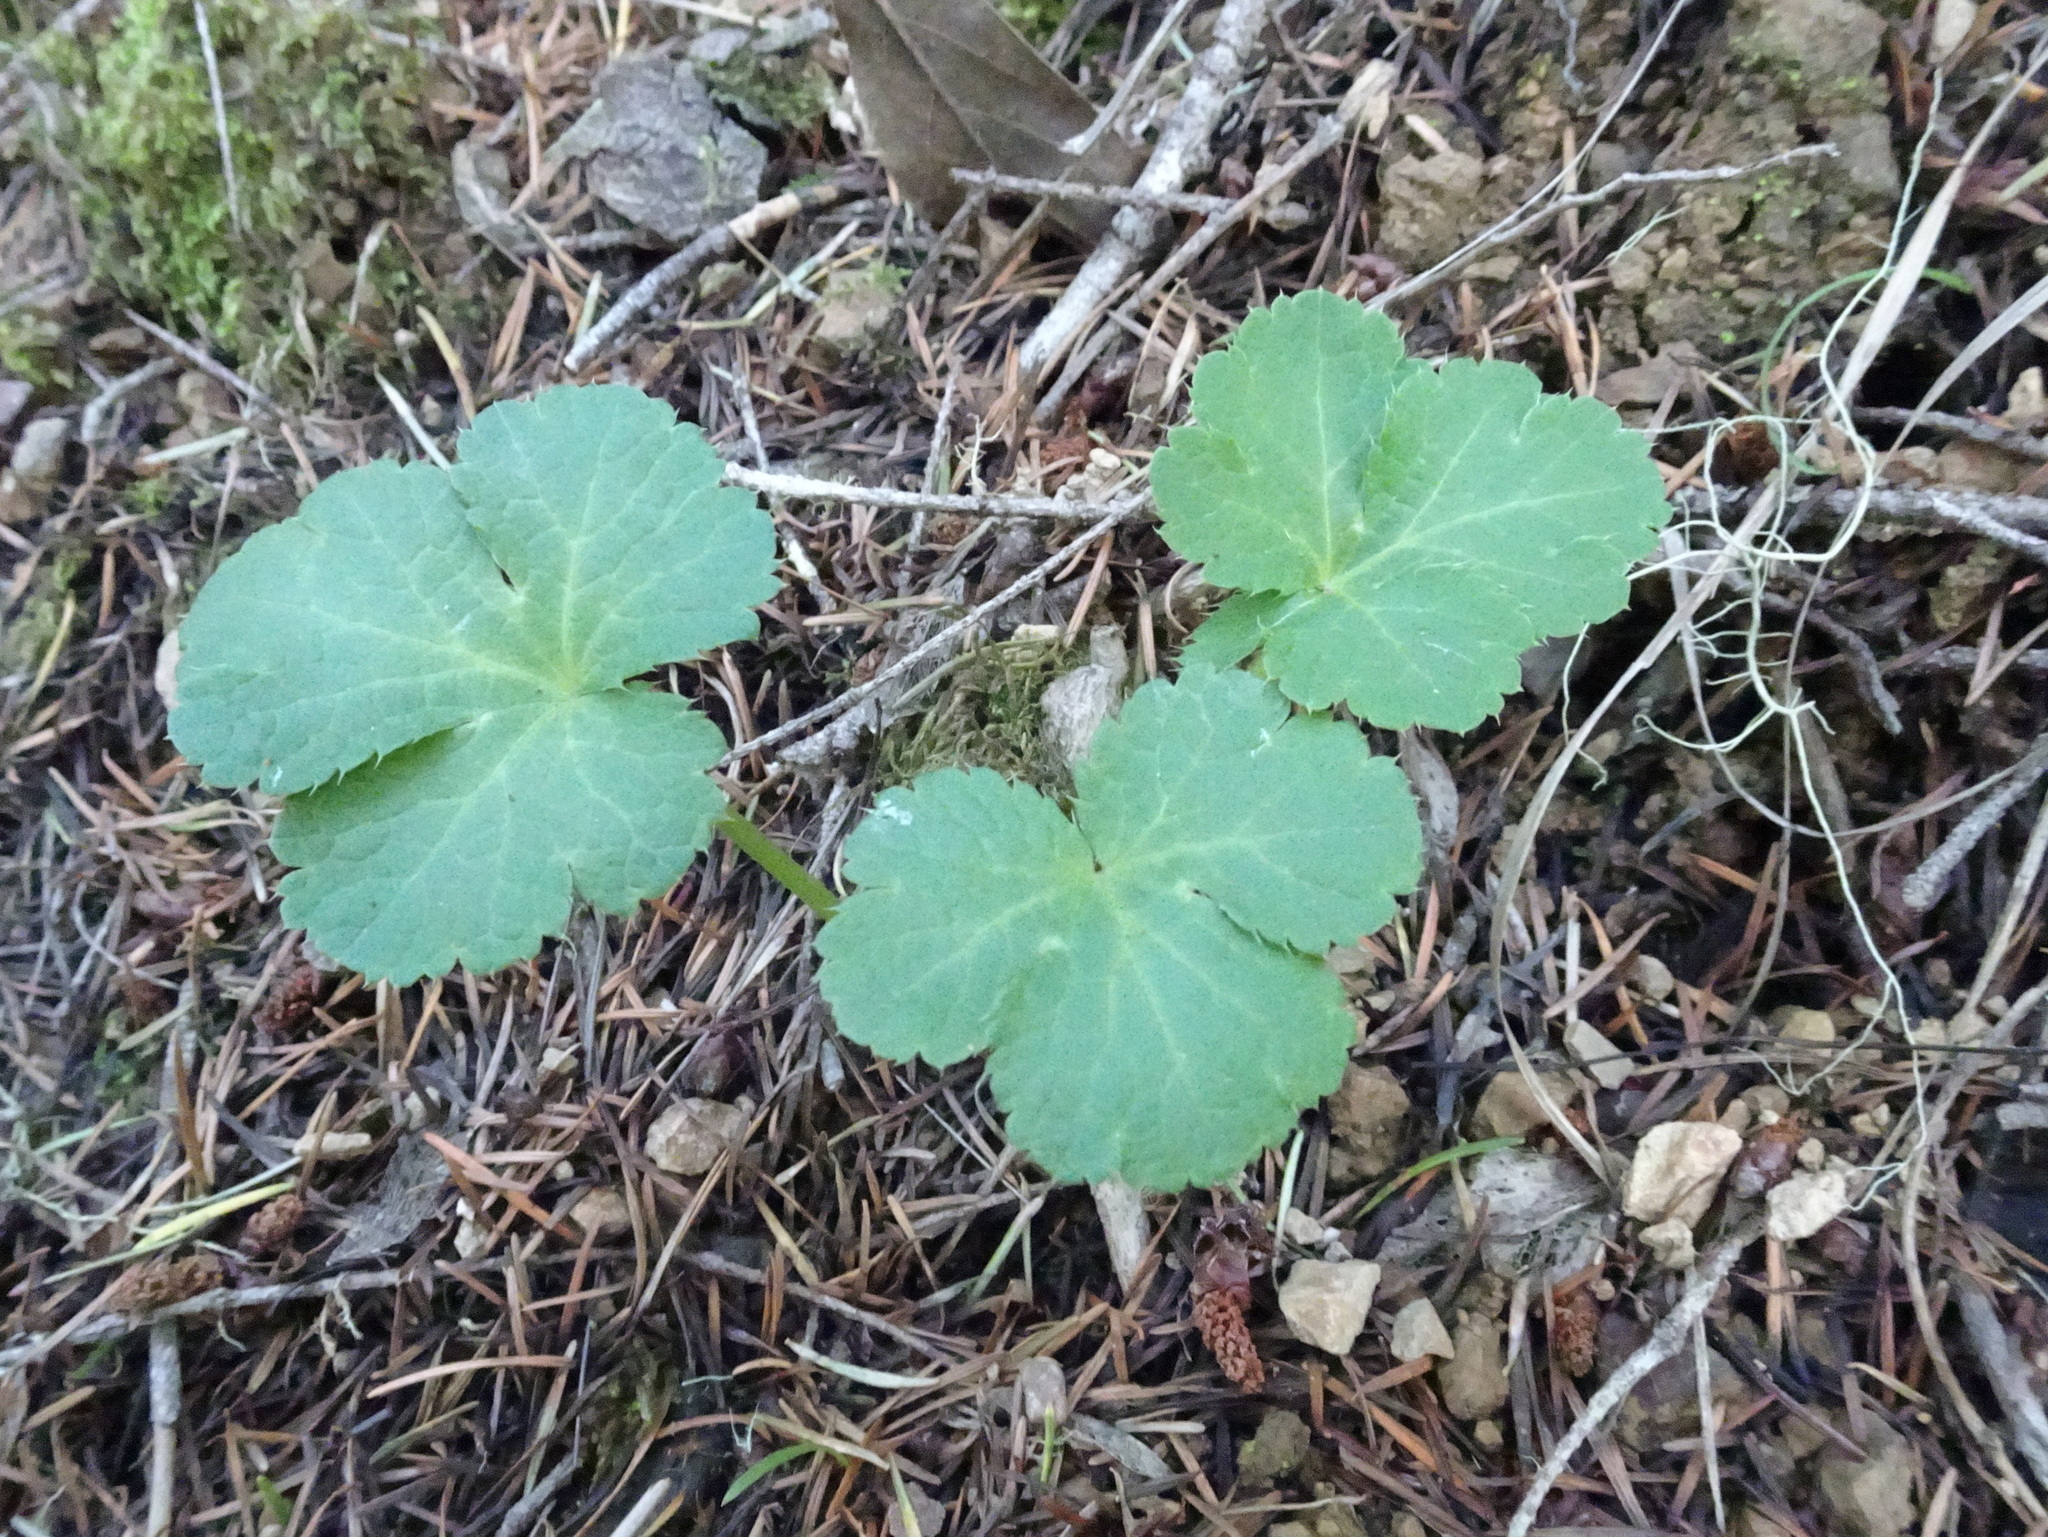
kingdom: Plantae
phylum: Tracheophyta
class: Magnoliopsida
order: Apiales
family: Apiaceae
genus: Sanicula
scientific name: Sanicula crassicaulis
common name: Western snakeroot
